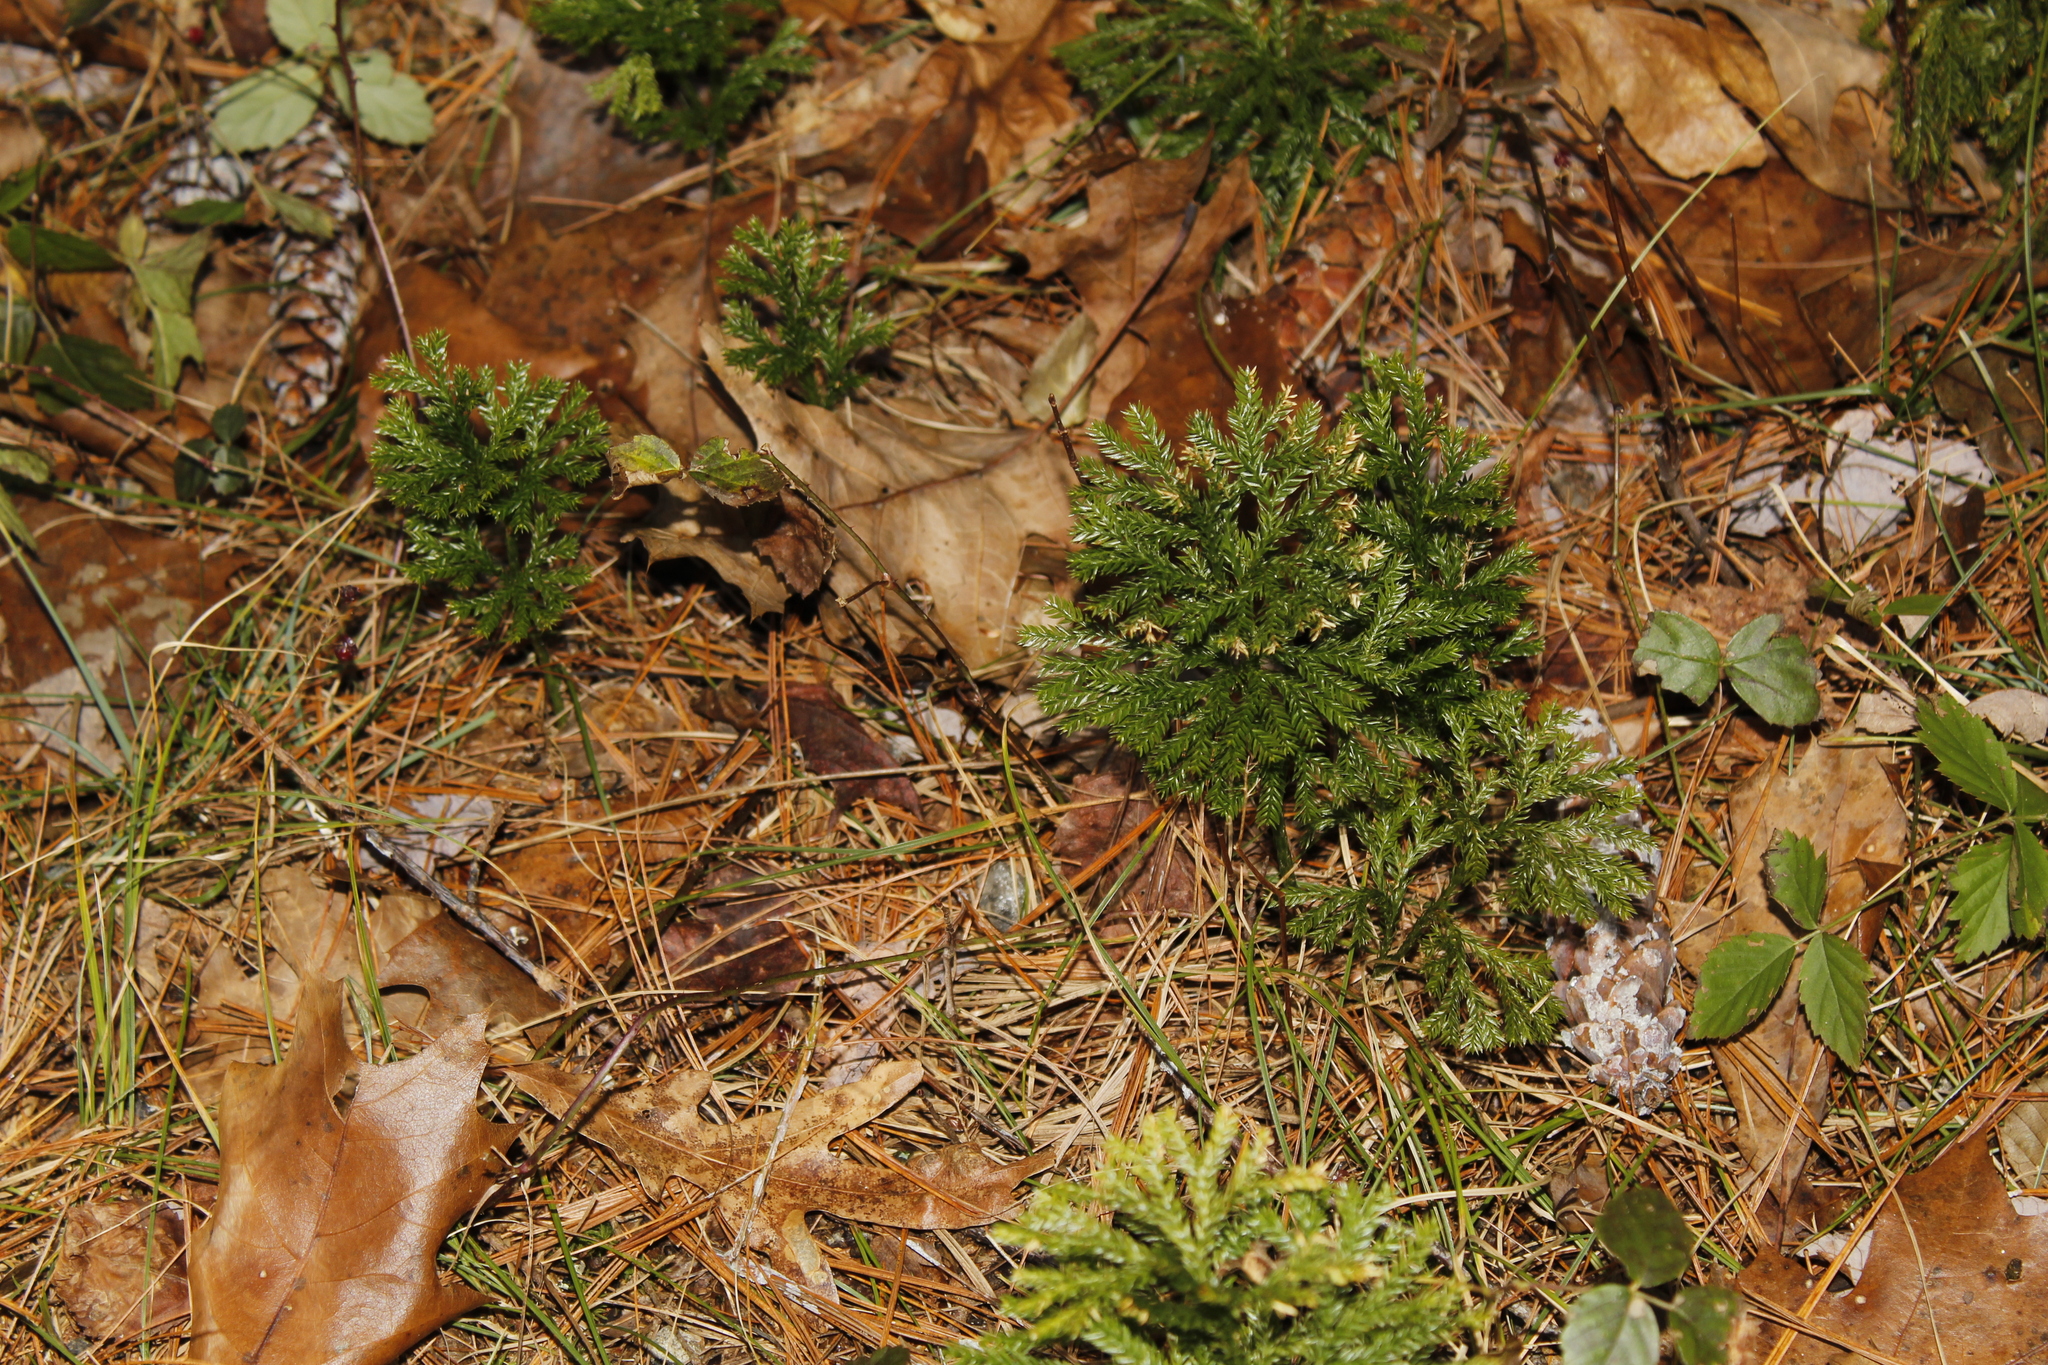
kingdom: Plantae
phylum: Tracheophyta
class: Lycopodiopsida
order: Lycopodiales
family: Lycopodiaceae
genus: Dendrolycopodium
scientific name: Dendrolycopodium obscurum
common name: Common ground-pine
